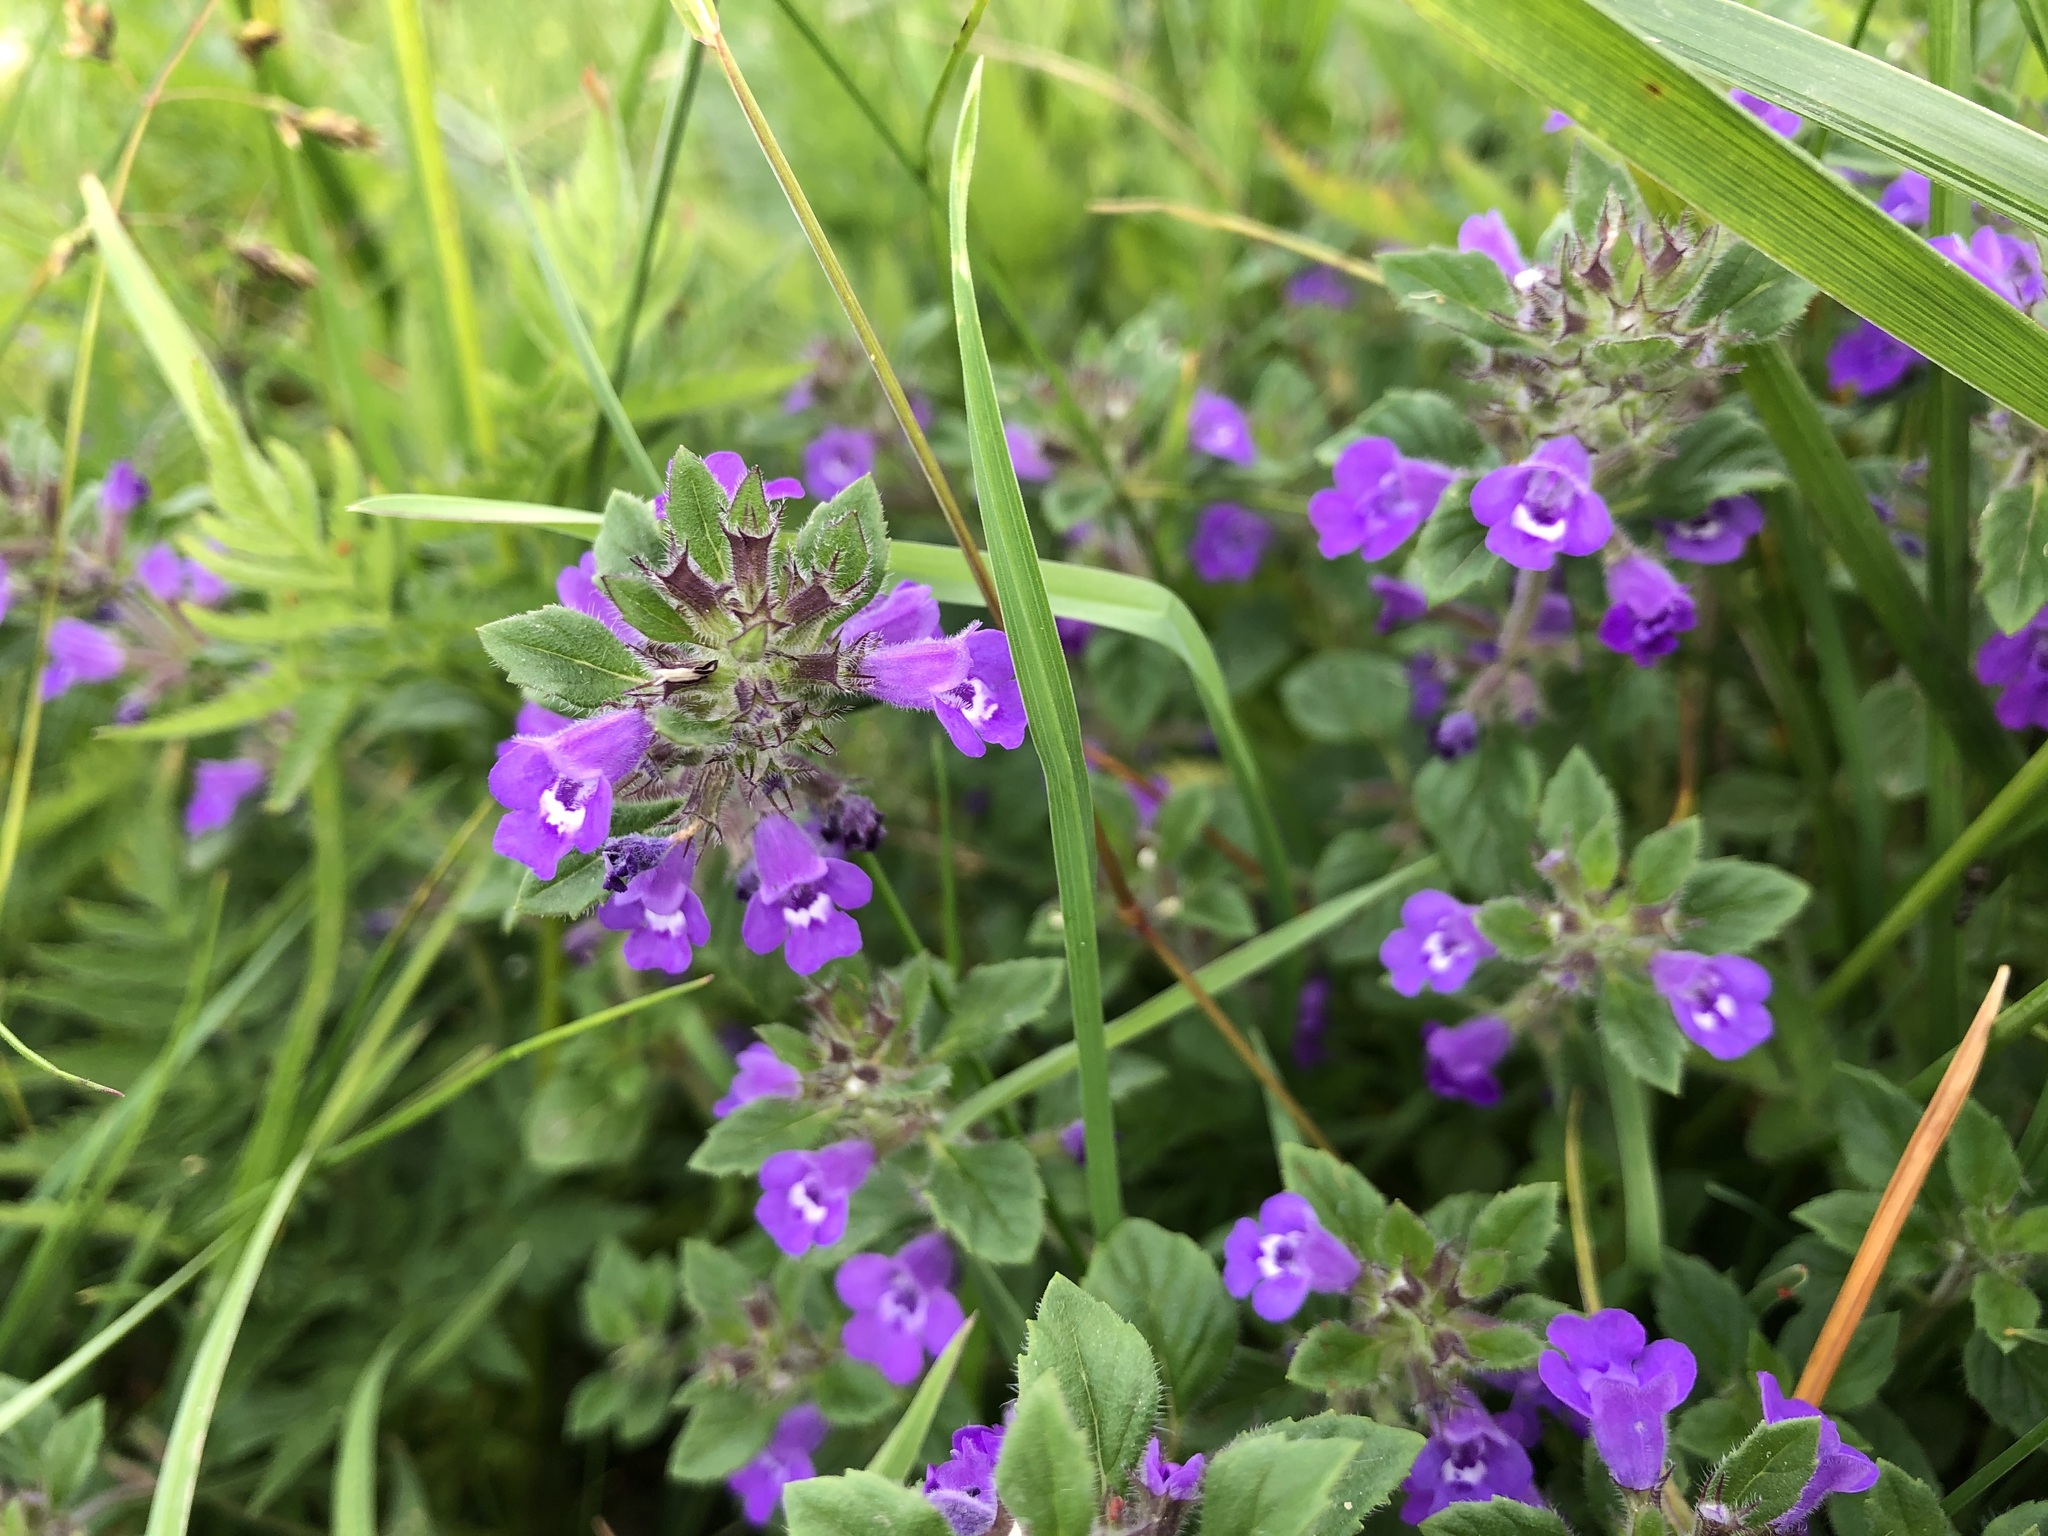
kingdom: Plantae
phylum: Tracheophyta
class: Magnoliopsida
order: Lamiales
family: Lamiaceae
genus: Clinopodium
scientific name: Clinopodium acinos
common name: Basil thyme
